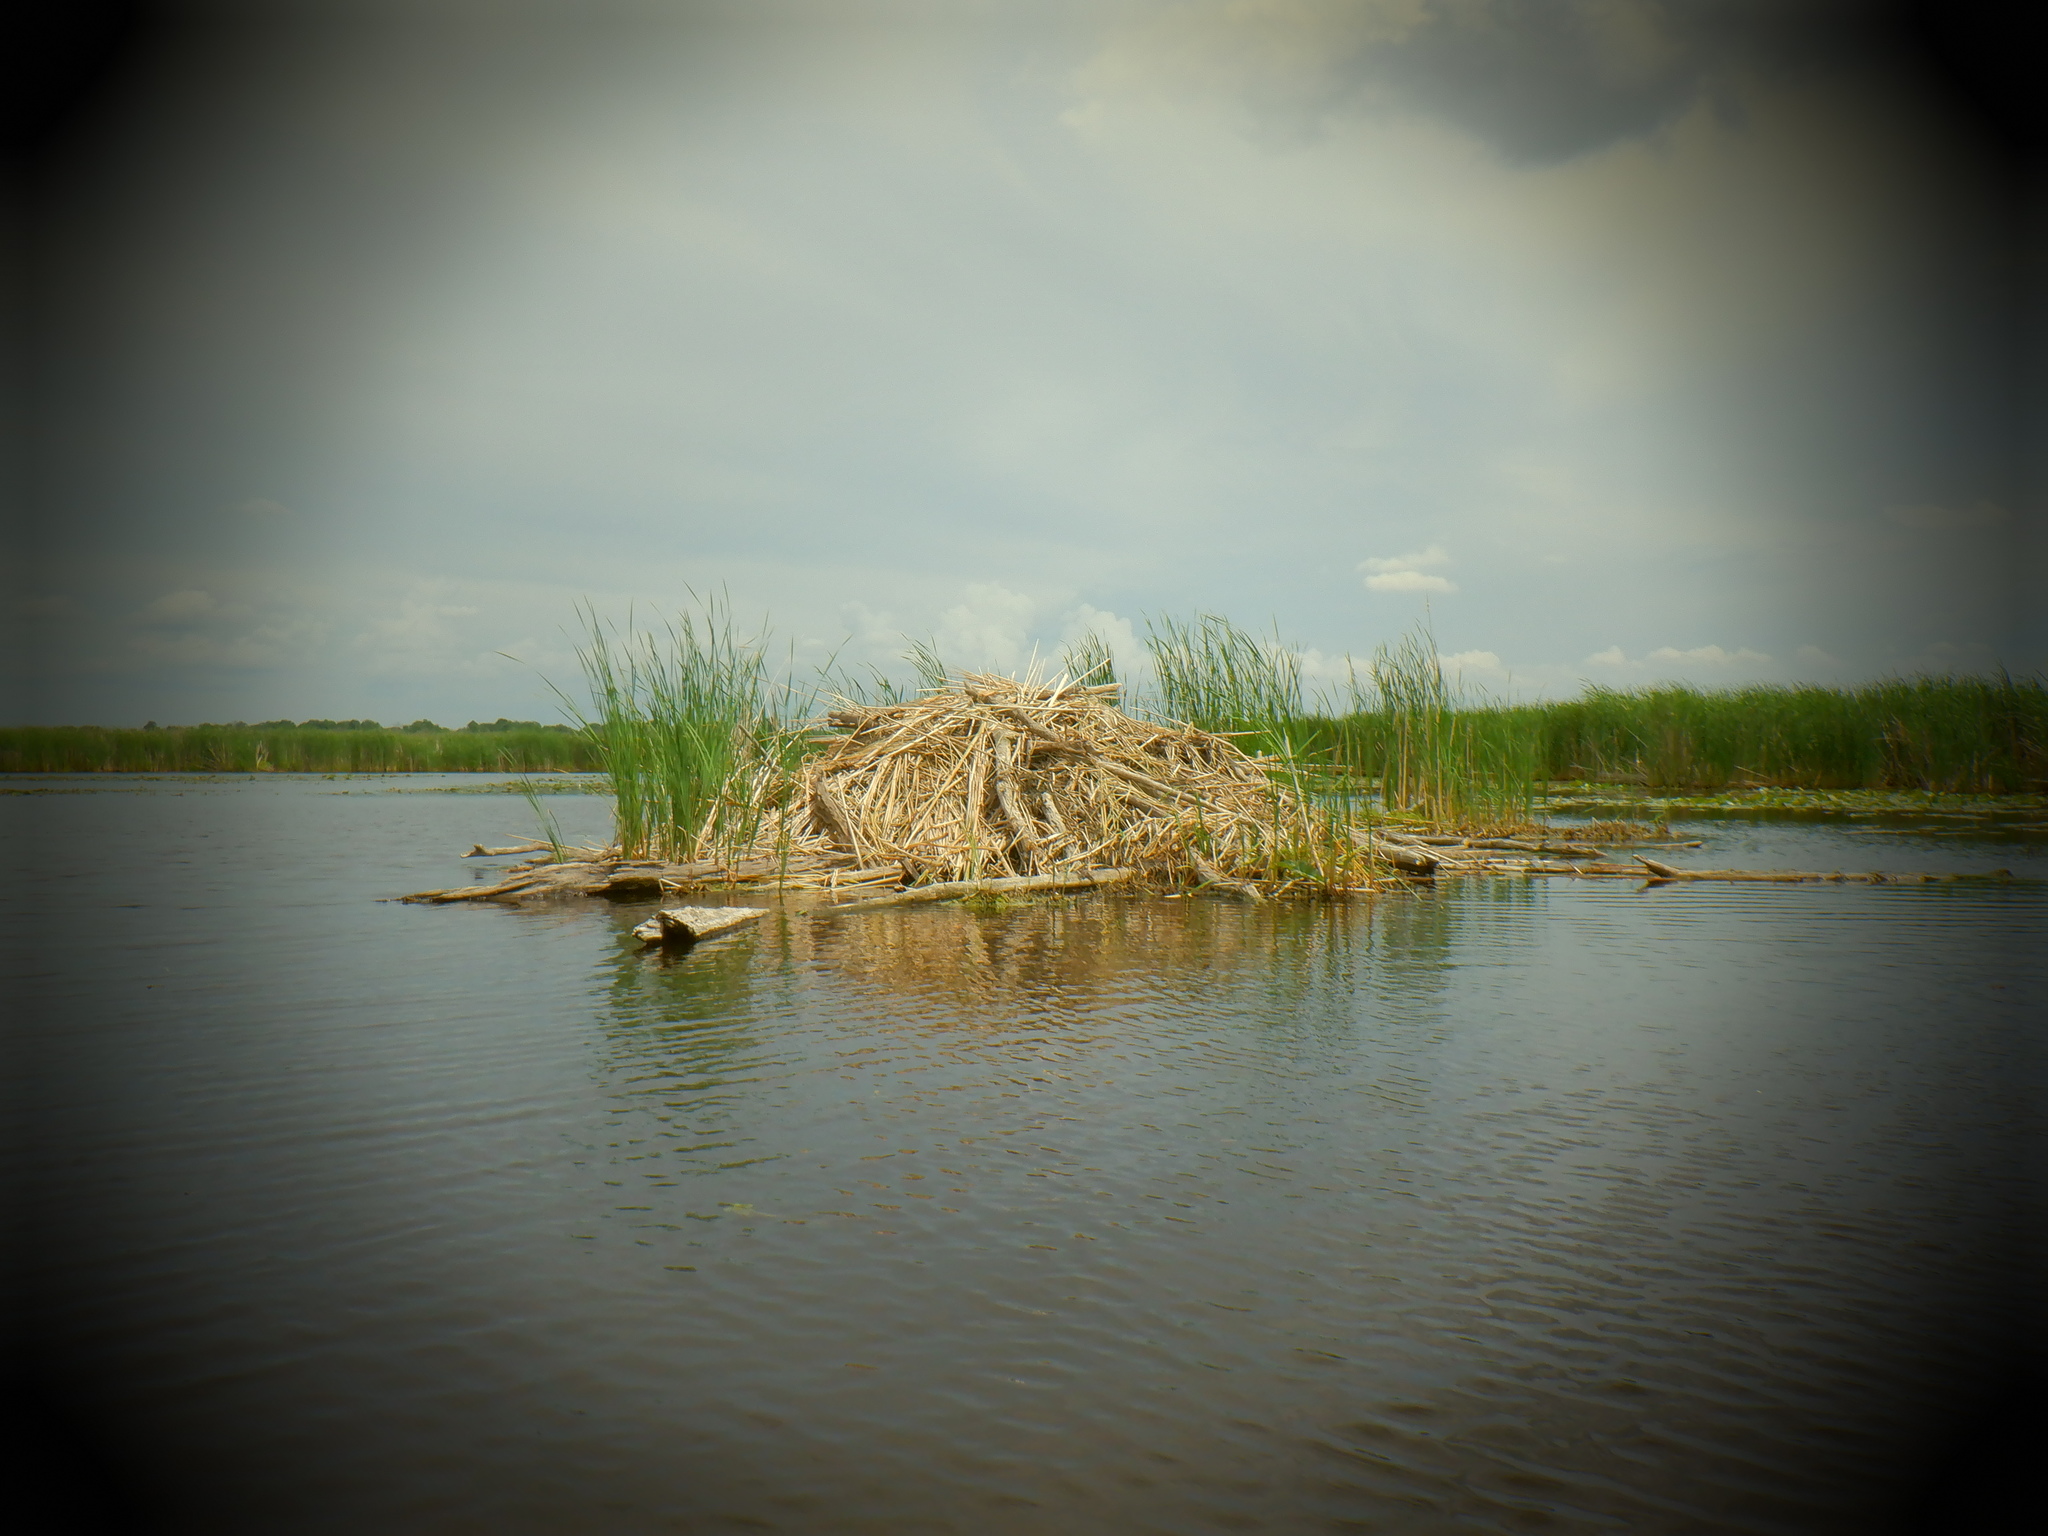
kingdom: Animalia
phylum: Chordata
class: Mammalia
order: Rodentia
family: Castoridae
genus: Castor
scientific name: Castor canadensis
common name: American beaver
